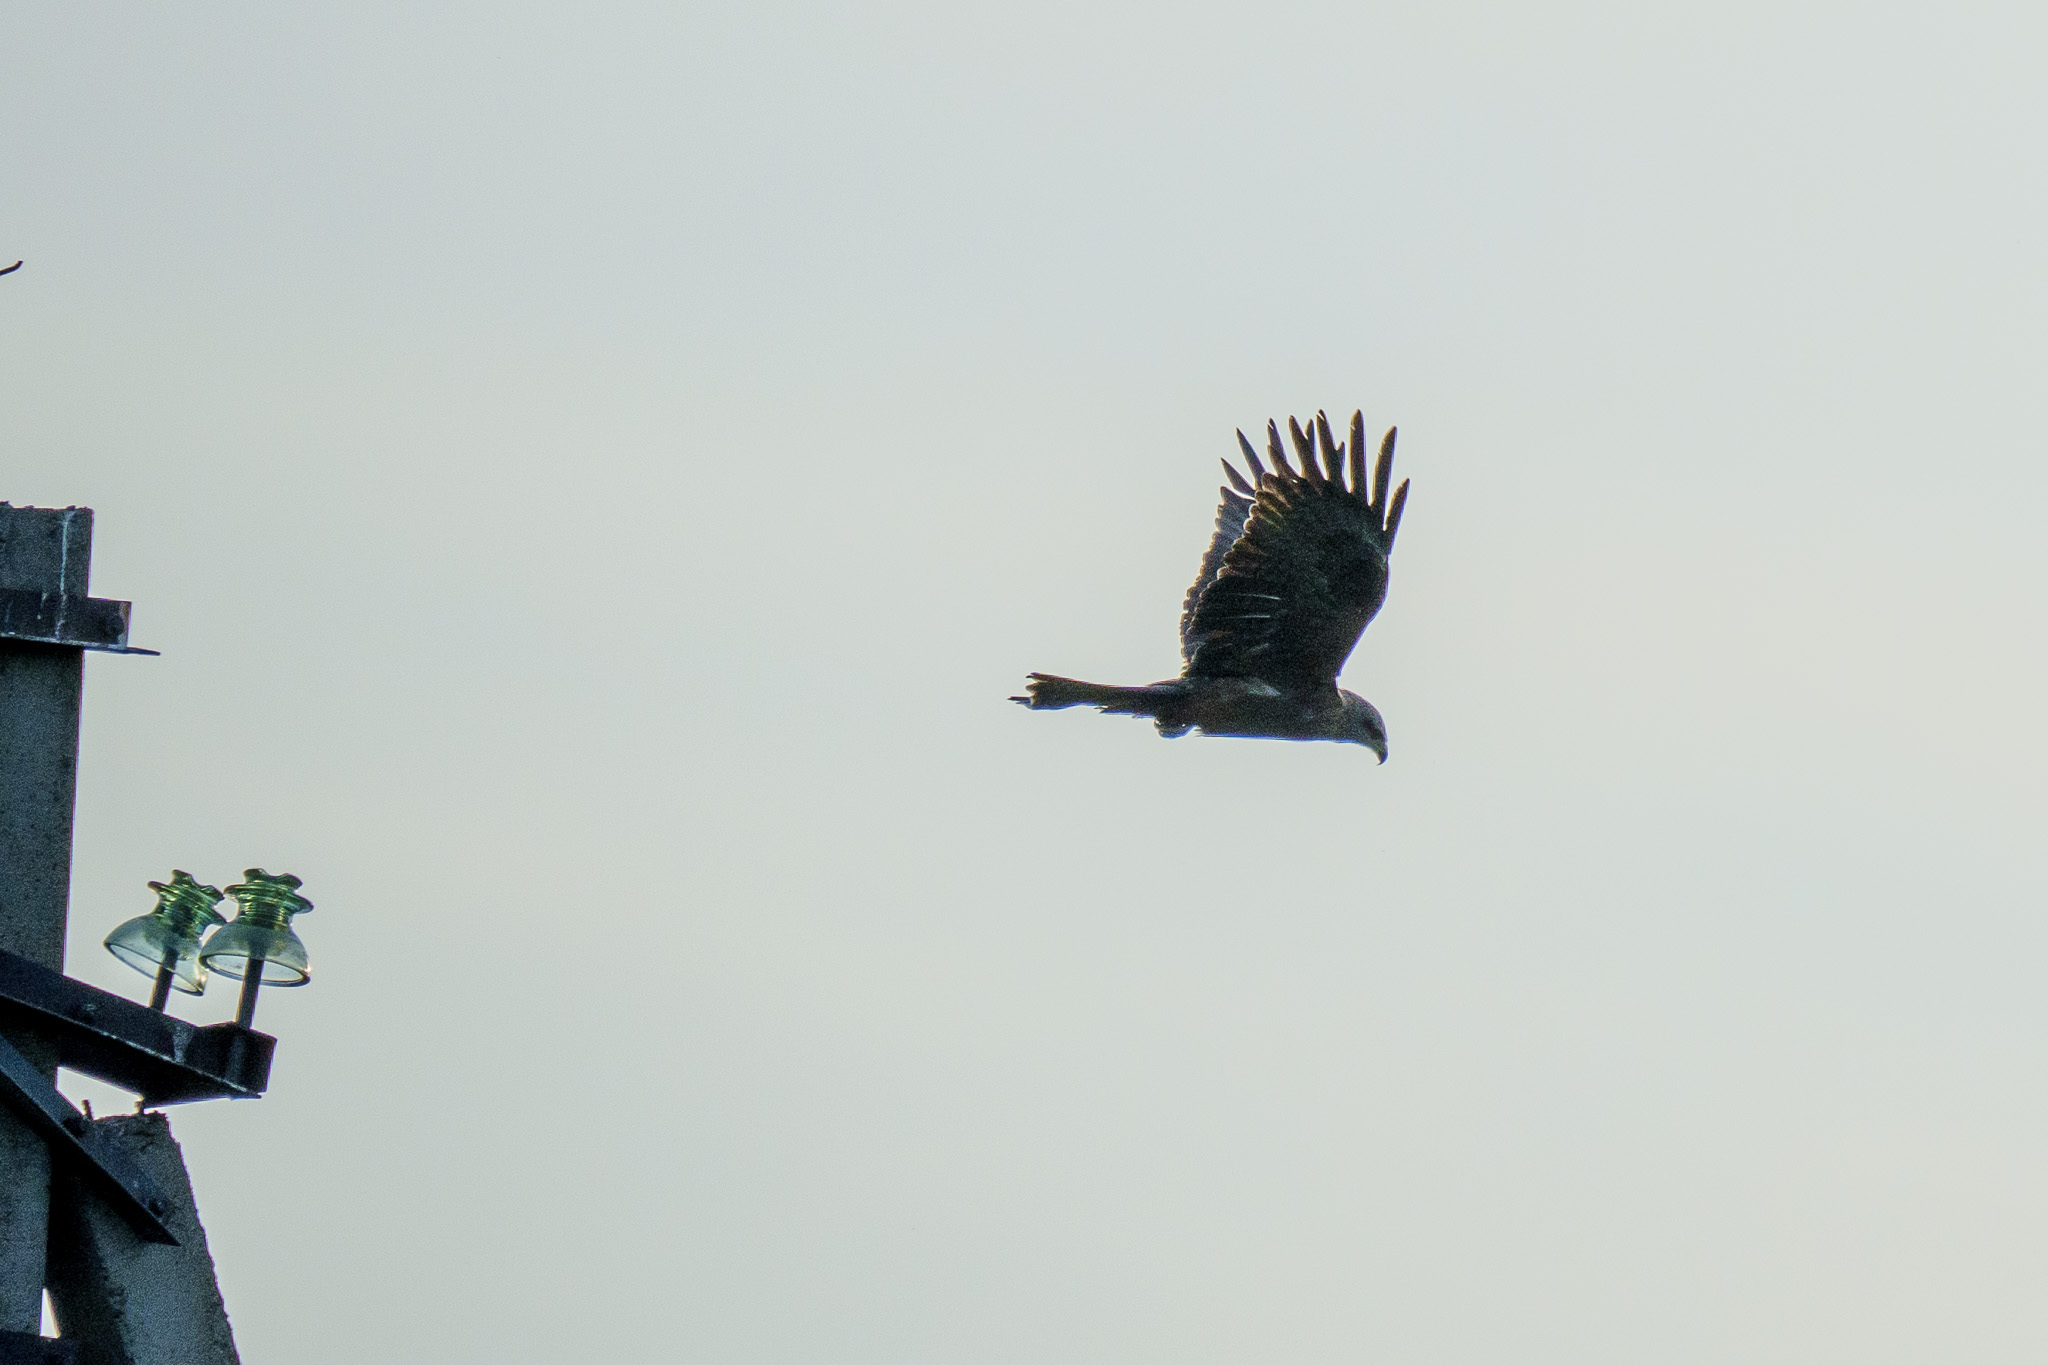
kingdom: Animalia
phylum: Chordata
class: Aves
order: Accipitriformes
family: Accipitridae
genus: Milvus
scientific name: Milvus migrans
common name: Black kite
